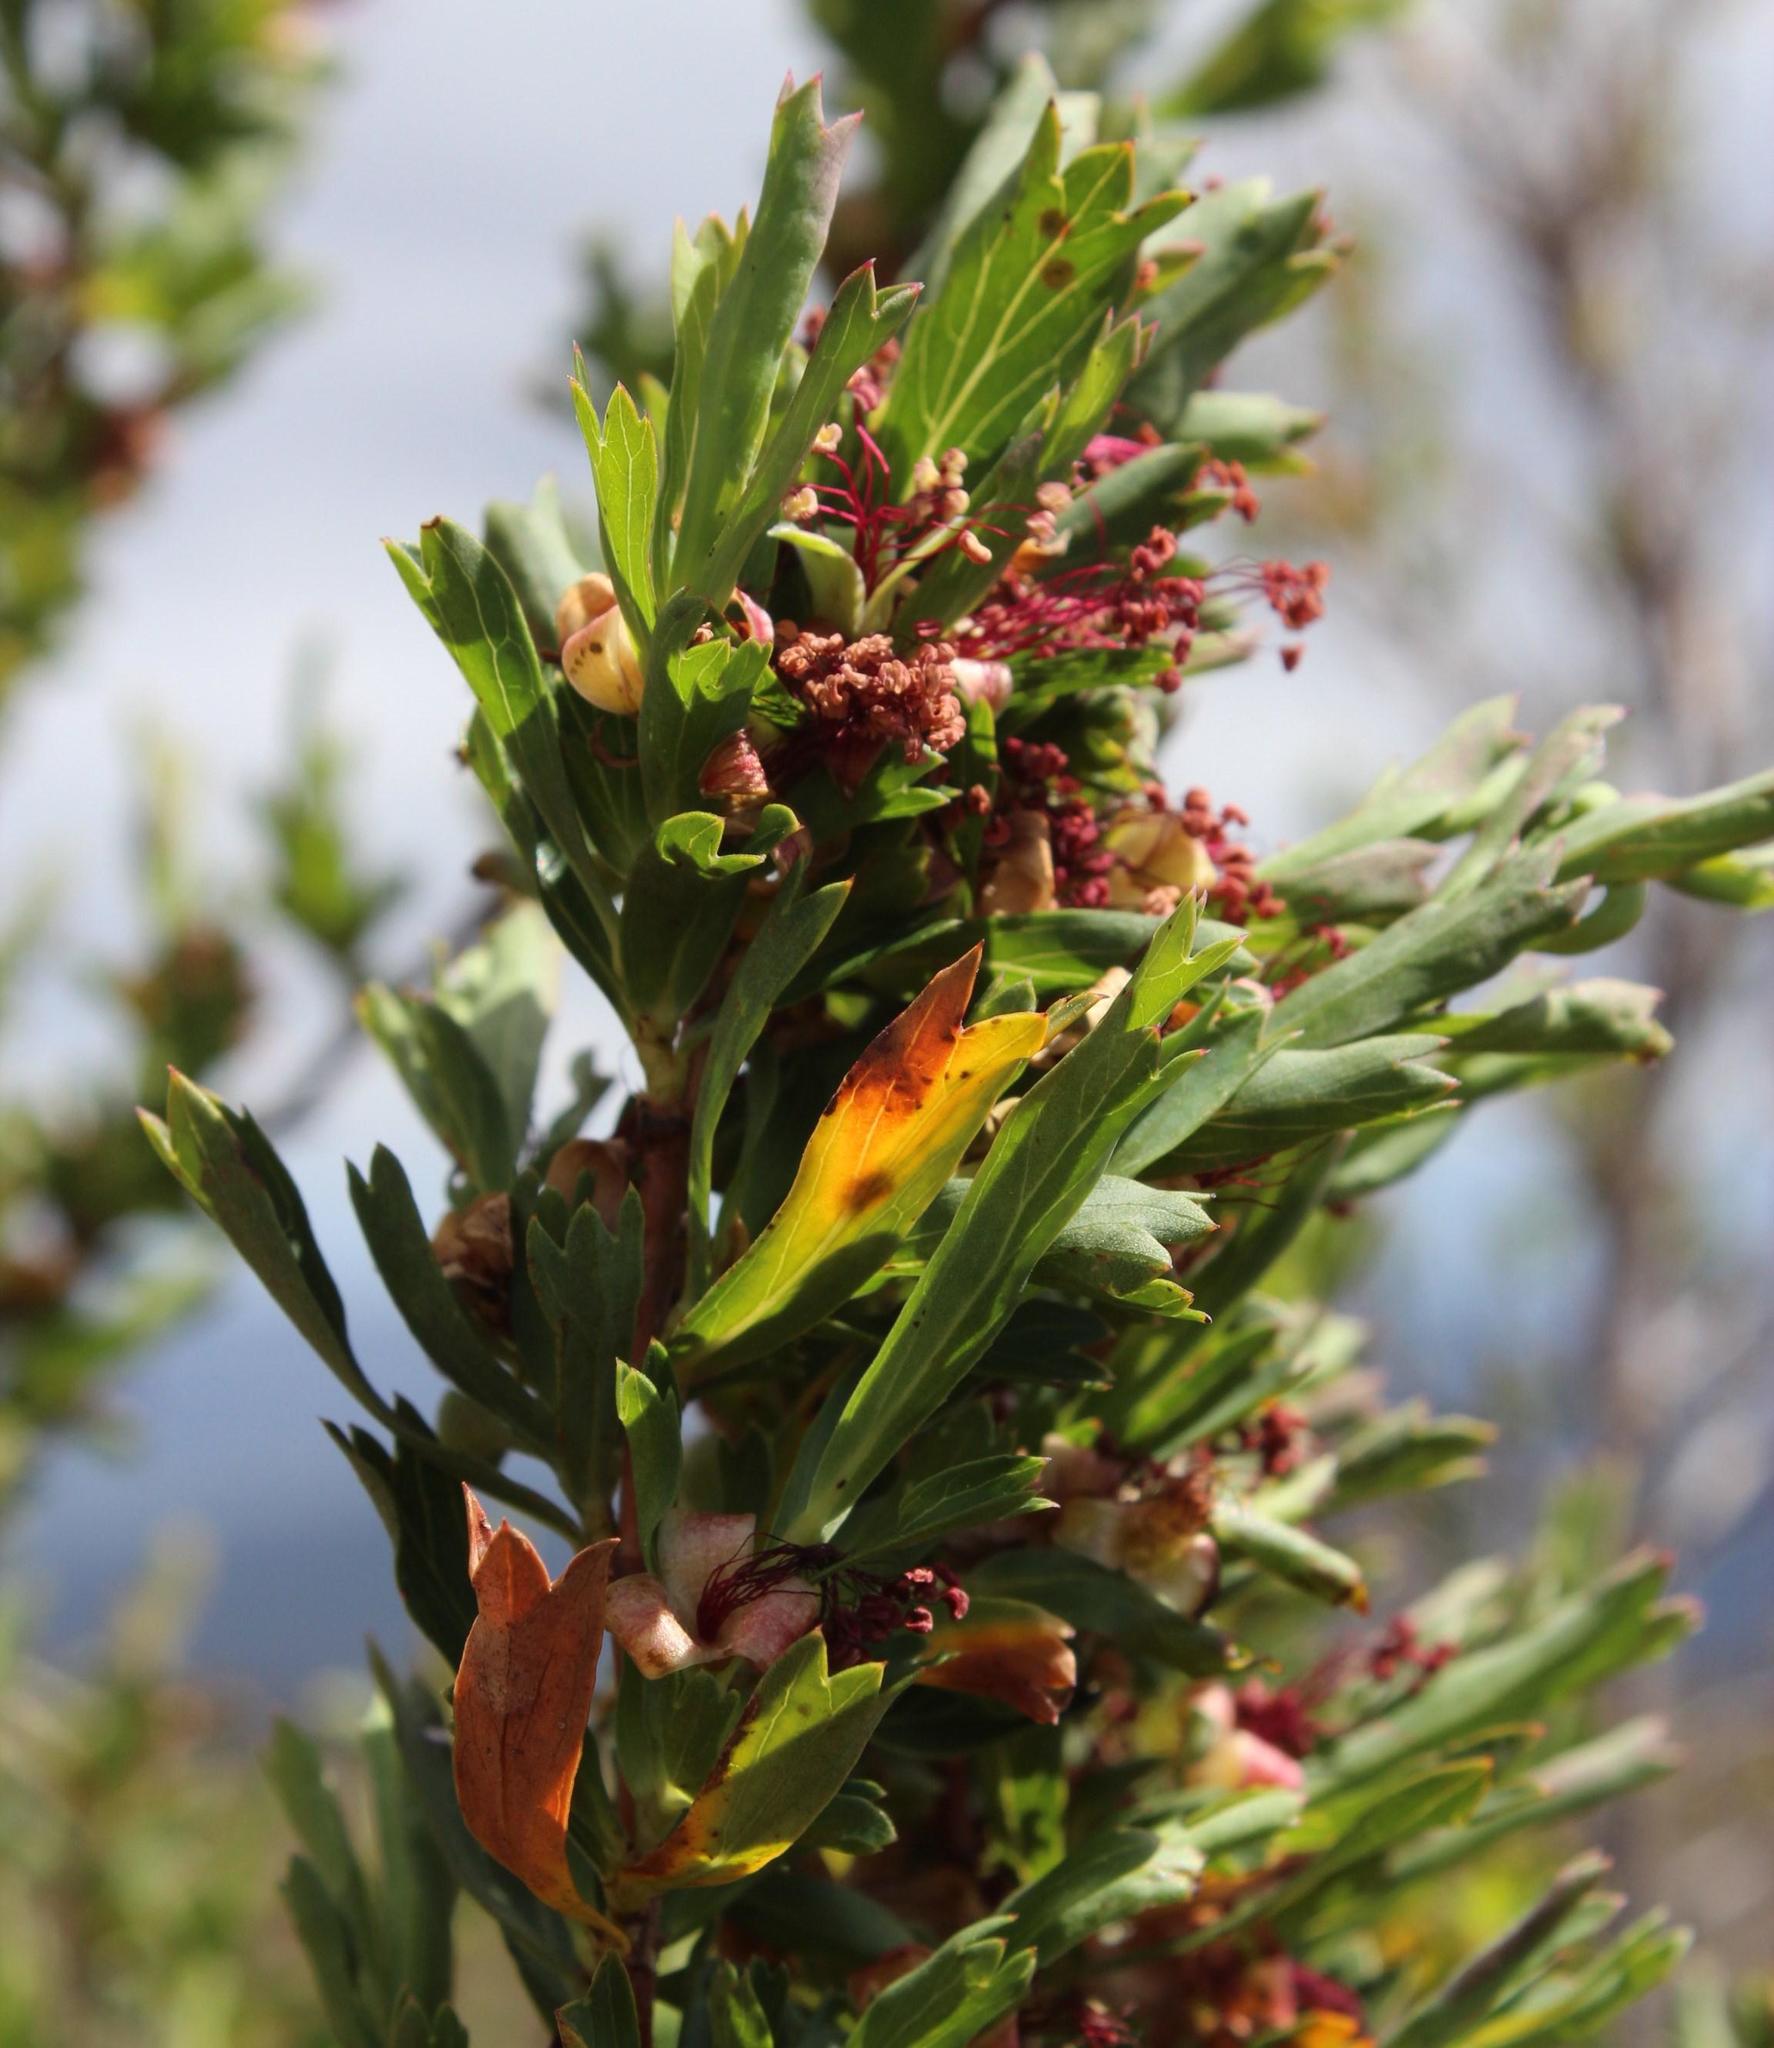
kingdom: Plantae
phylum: Tracheophyta
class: Magnoliopsida
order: Rosales
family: Rosaceae
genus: Cliffortia
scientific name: Cliffortia cuneata
